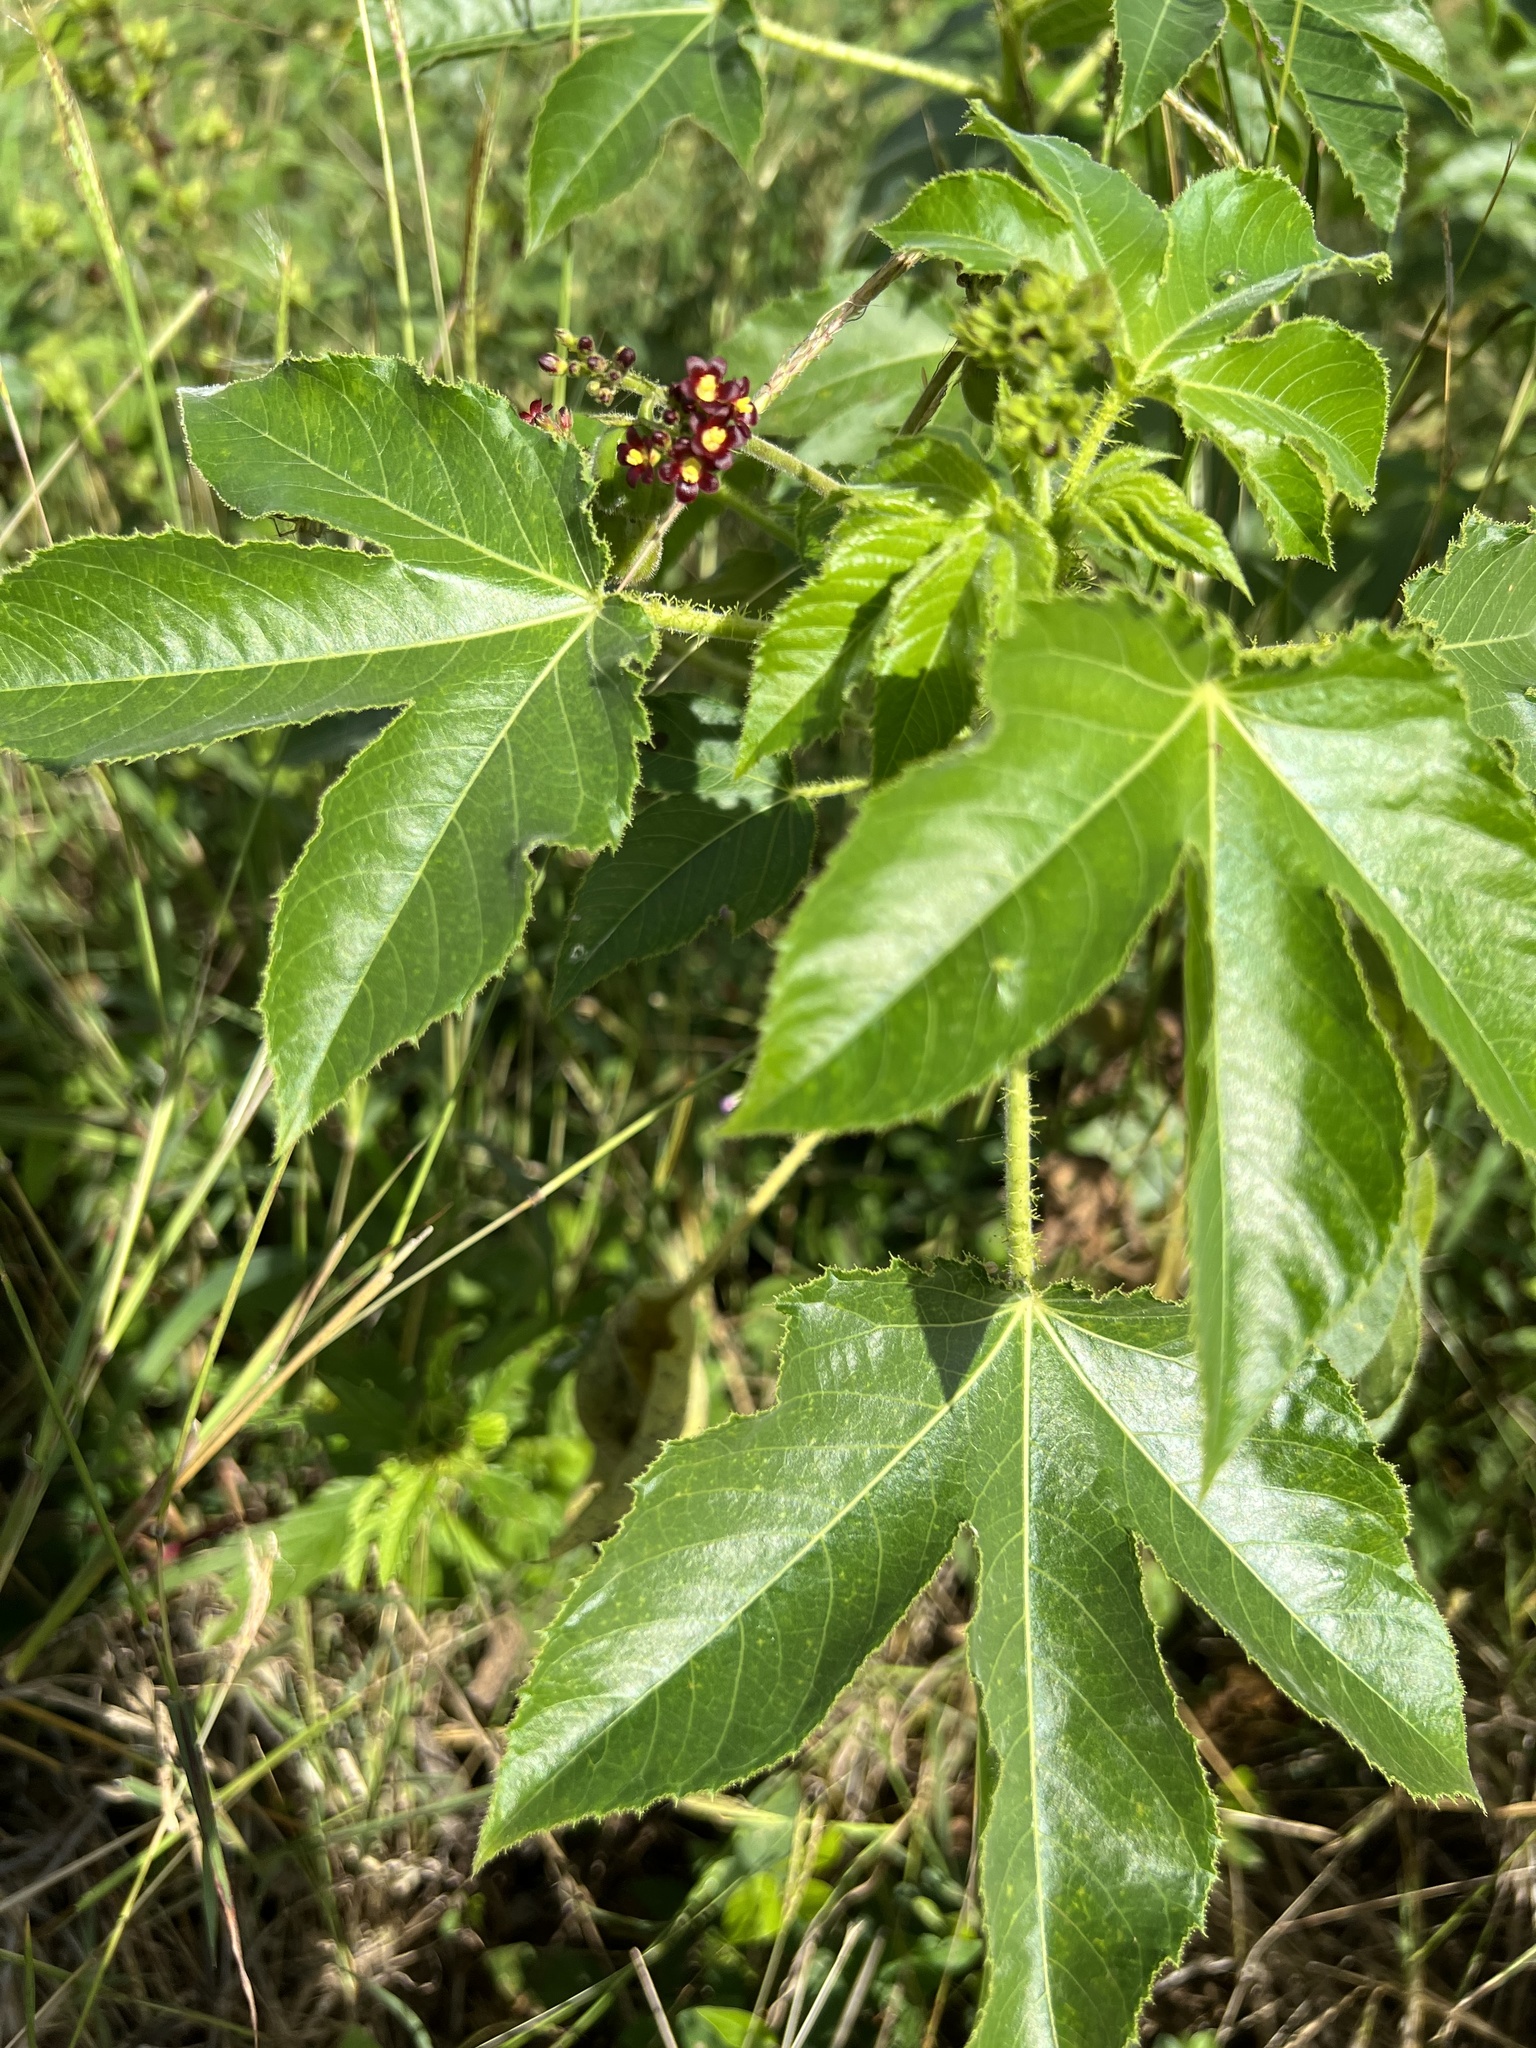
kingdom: Plantae
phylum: Tracheophyta
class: Magnoliopsida
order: Malpighiales
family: Euphorbiaceae
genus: Jatropha
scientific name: Jatropha gossypiifolia
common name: Bellyache bush
